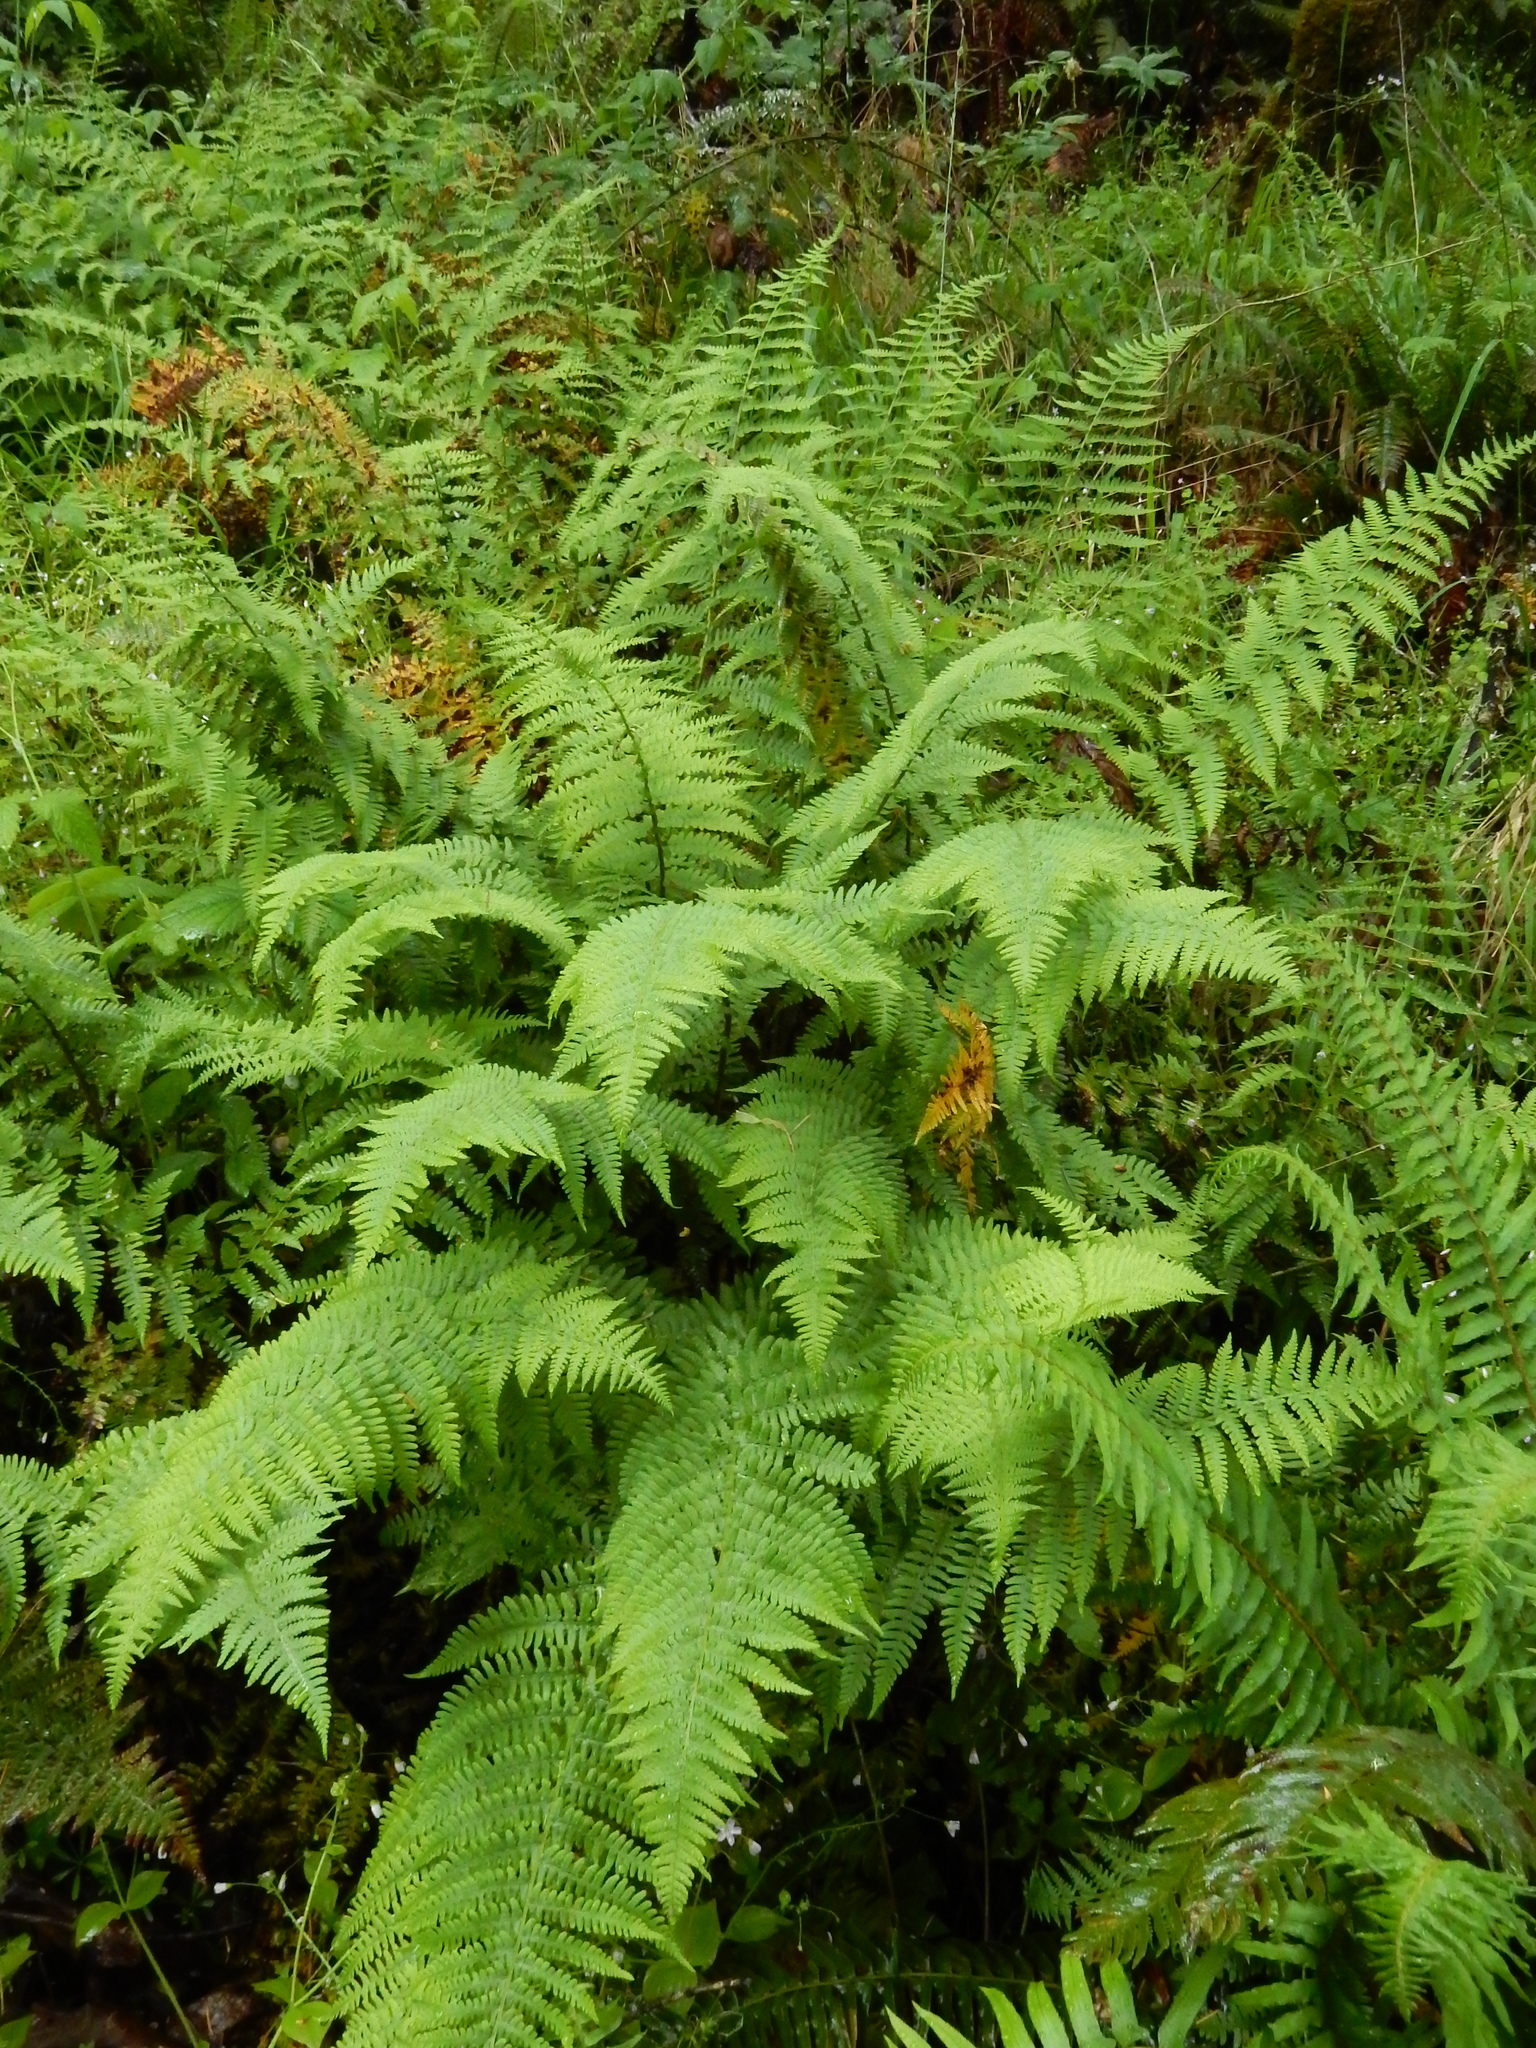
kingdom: Plantae
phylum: Tracheophyta
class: Polypodiopsida
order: Polypodiales
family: Dryopteridaceae
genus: Dryopteris
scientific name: Dryopteris arguta
